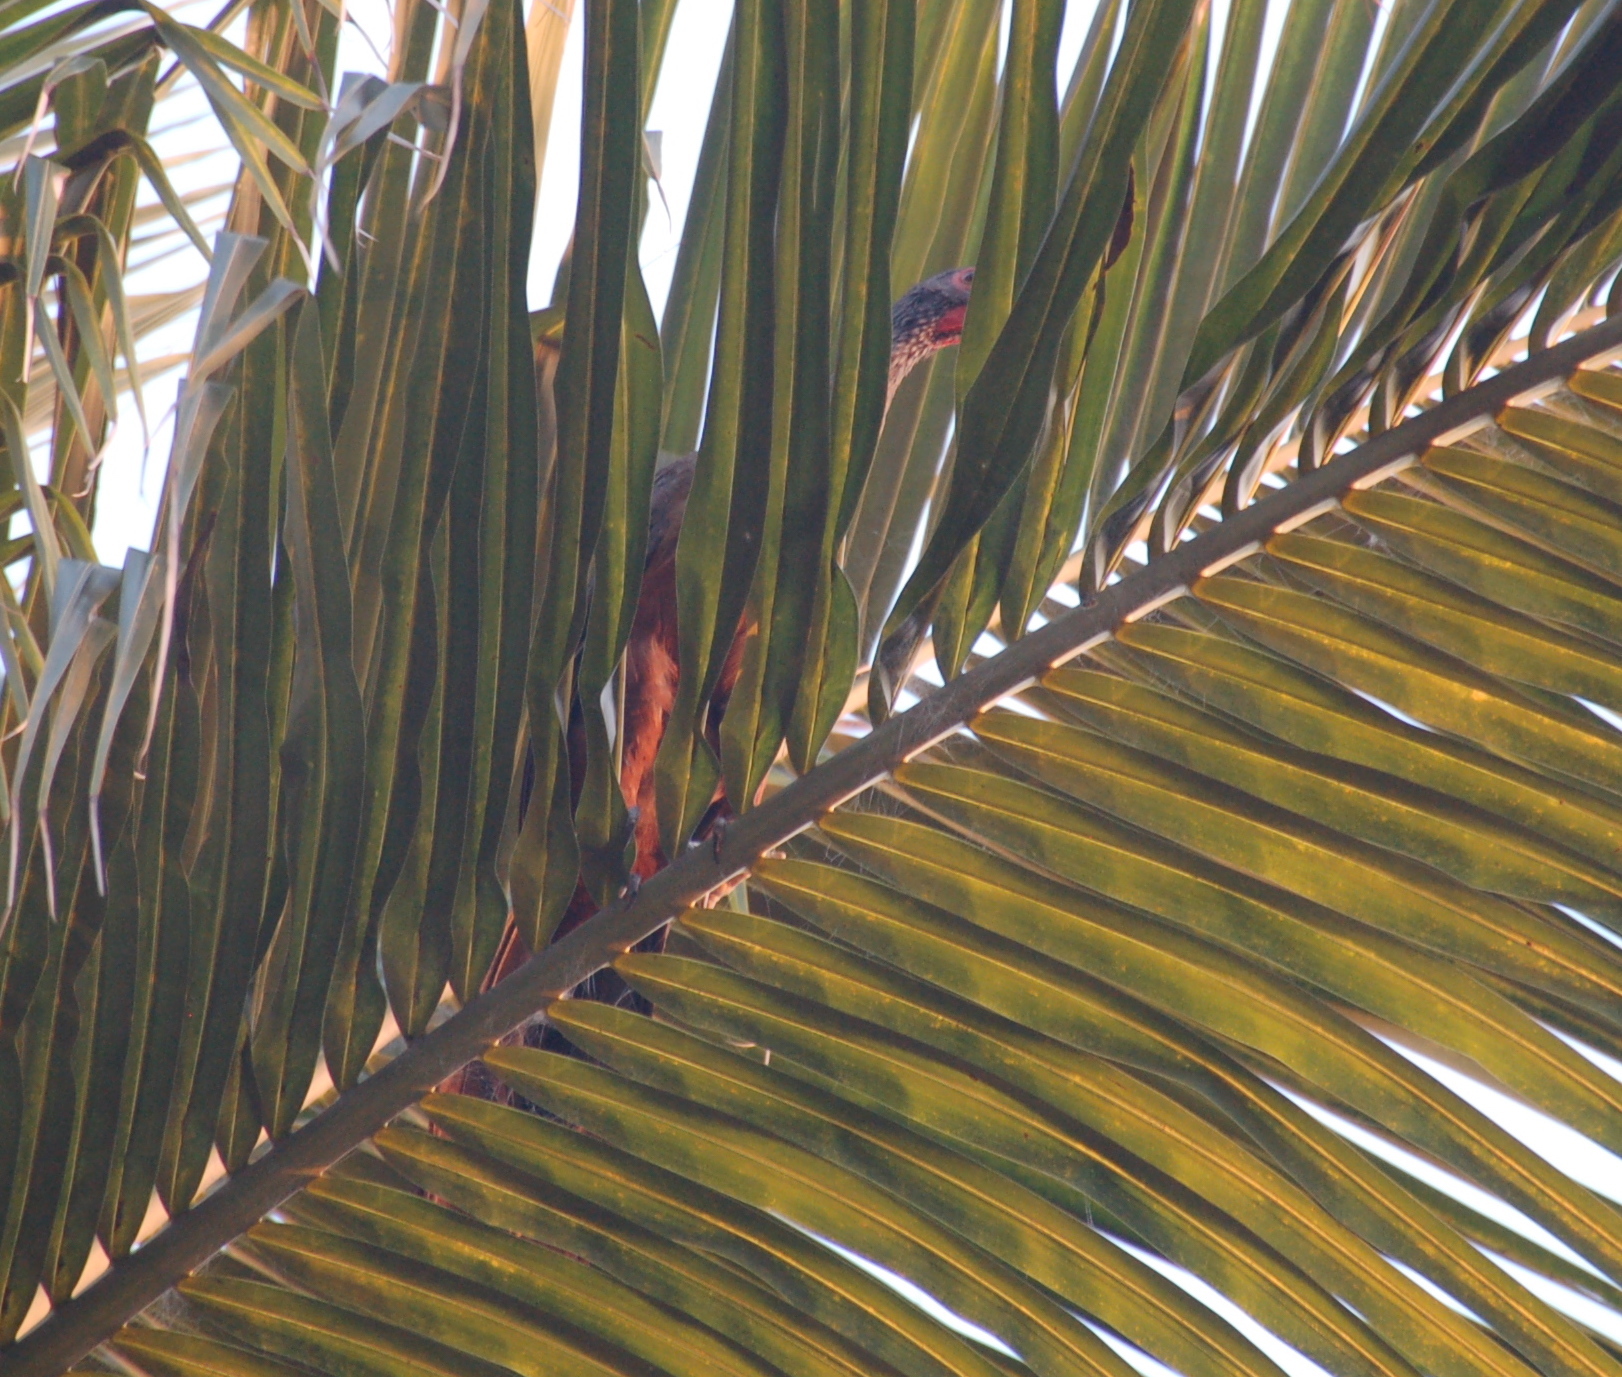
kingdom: Animalia
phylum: Chordata
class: Aves
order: Galliformes
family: Cracidae
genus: Ortalis
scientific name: Ortalis wagleri
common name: Rufous-bellied chachalaca
